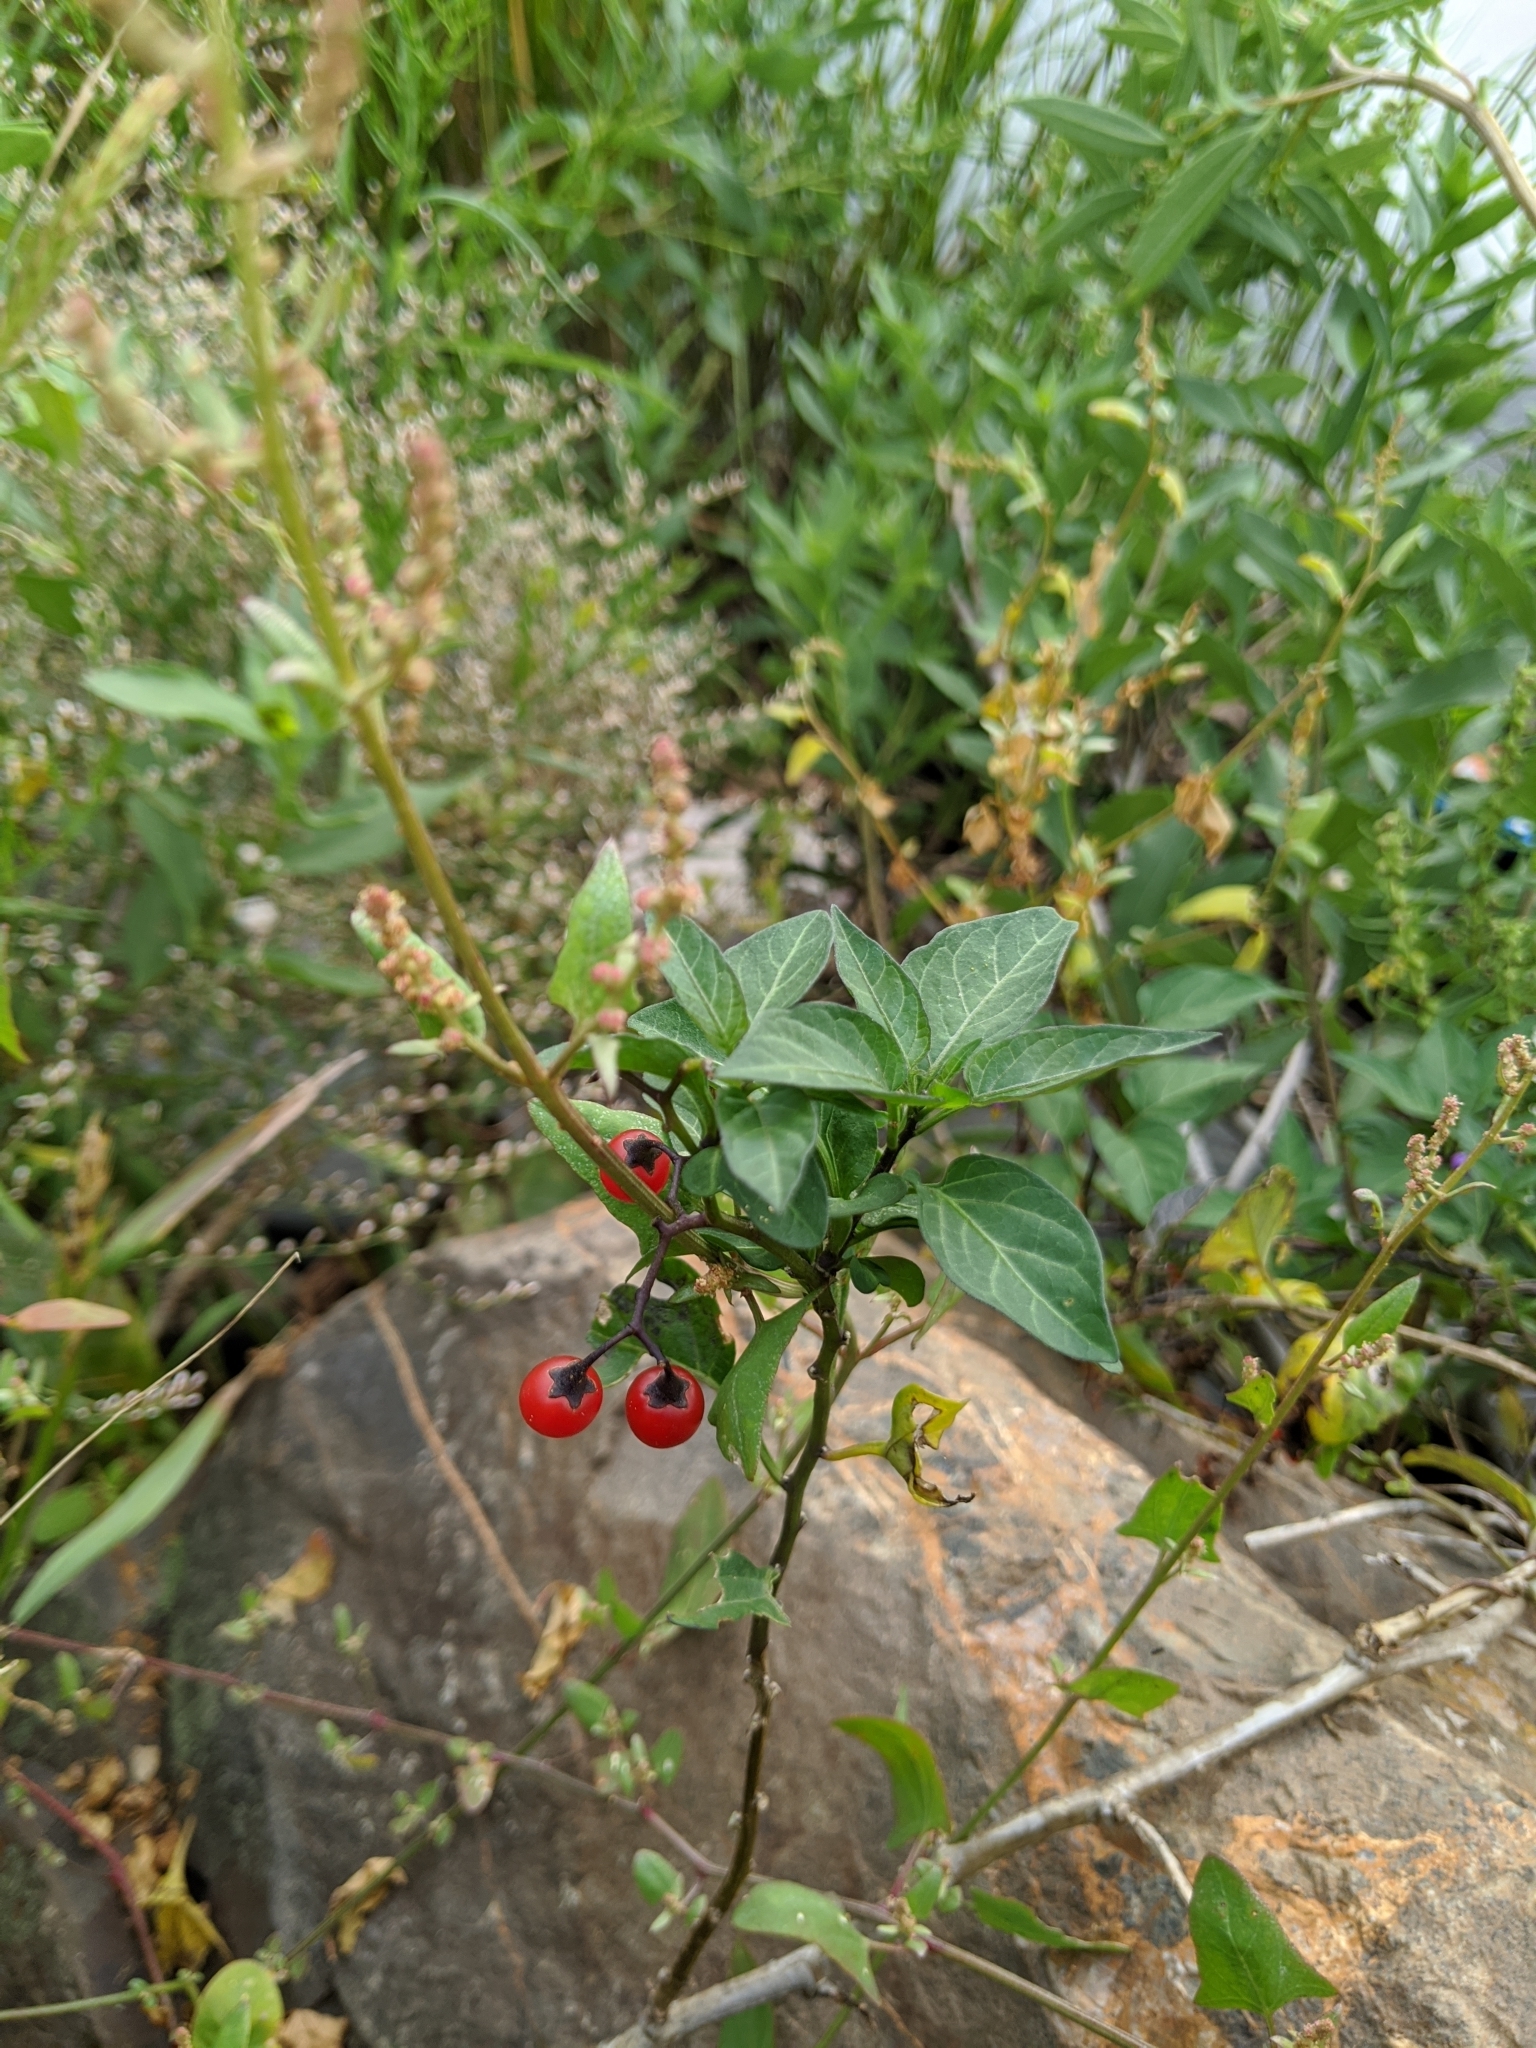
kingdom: Plantae
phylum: Tracheophyta
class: Magnoliopsida
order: Solanales
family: Solanaceae
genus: Solanum
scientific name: Solanum dulcamara
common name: Climbing nightshade
